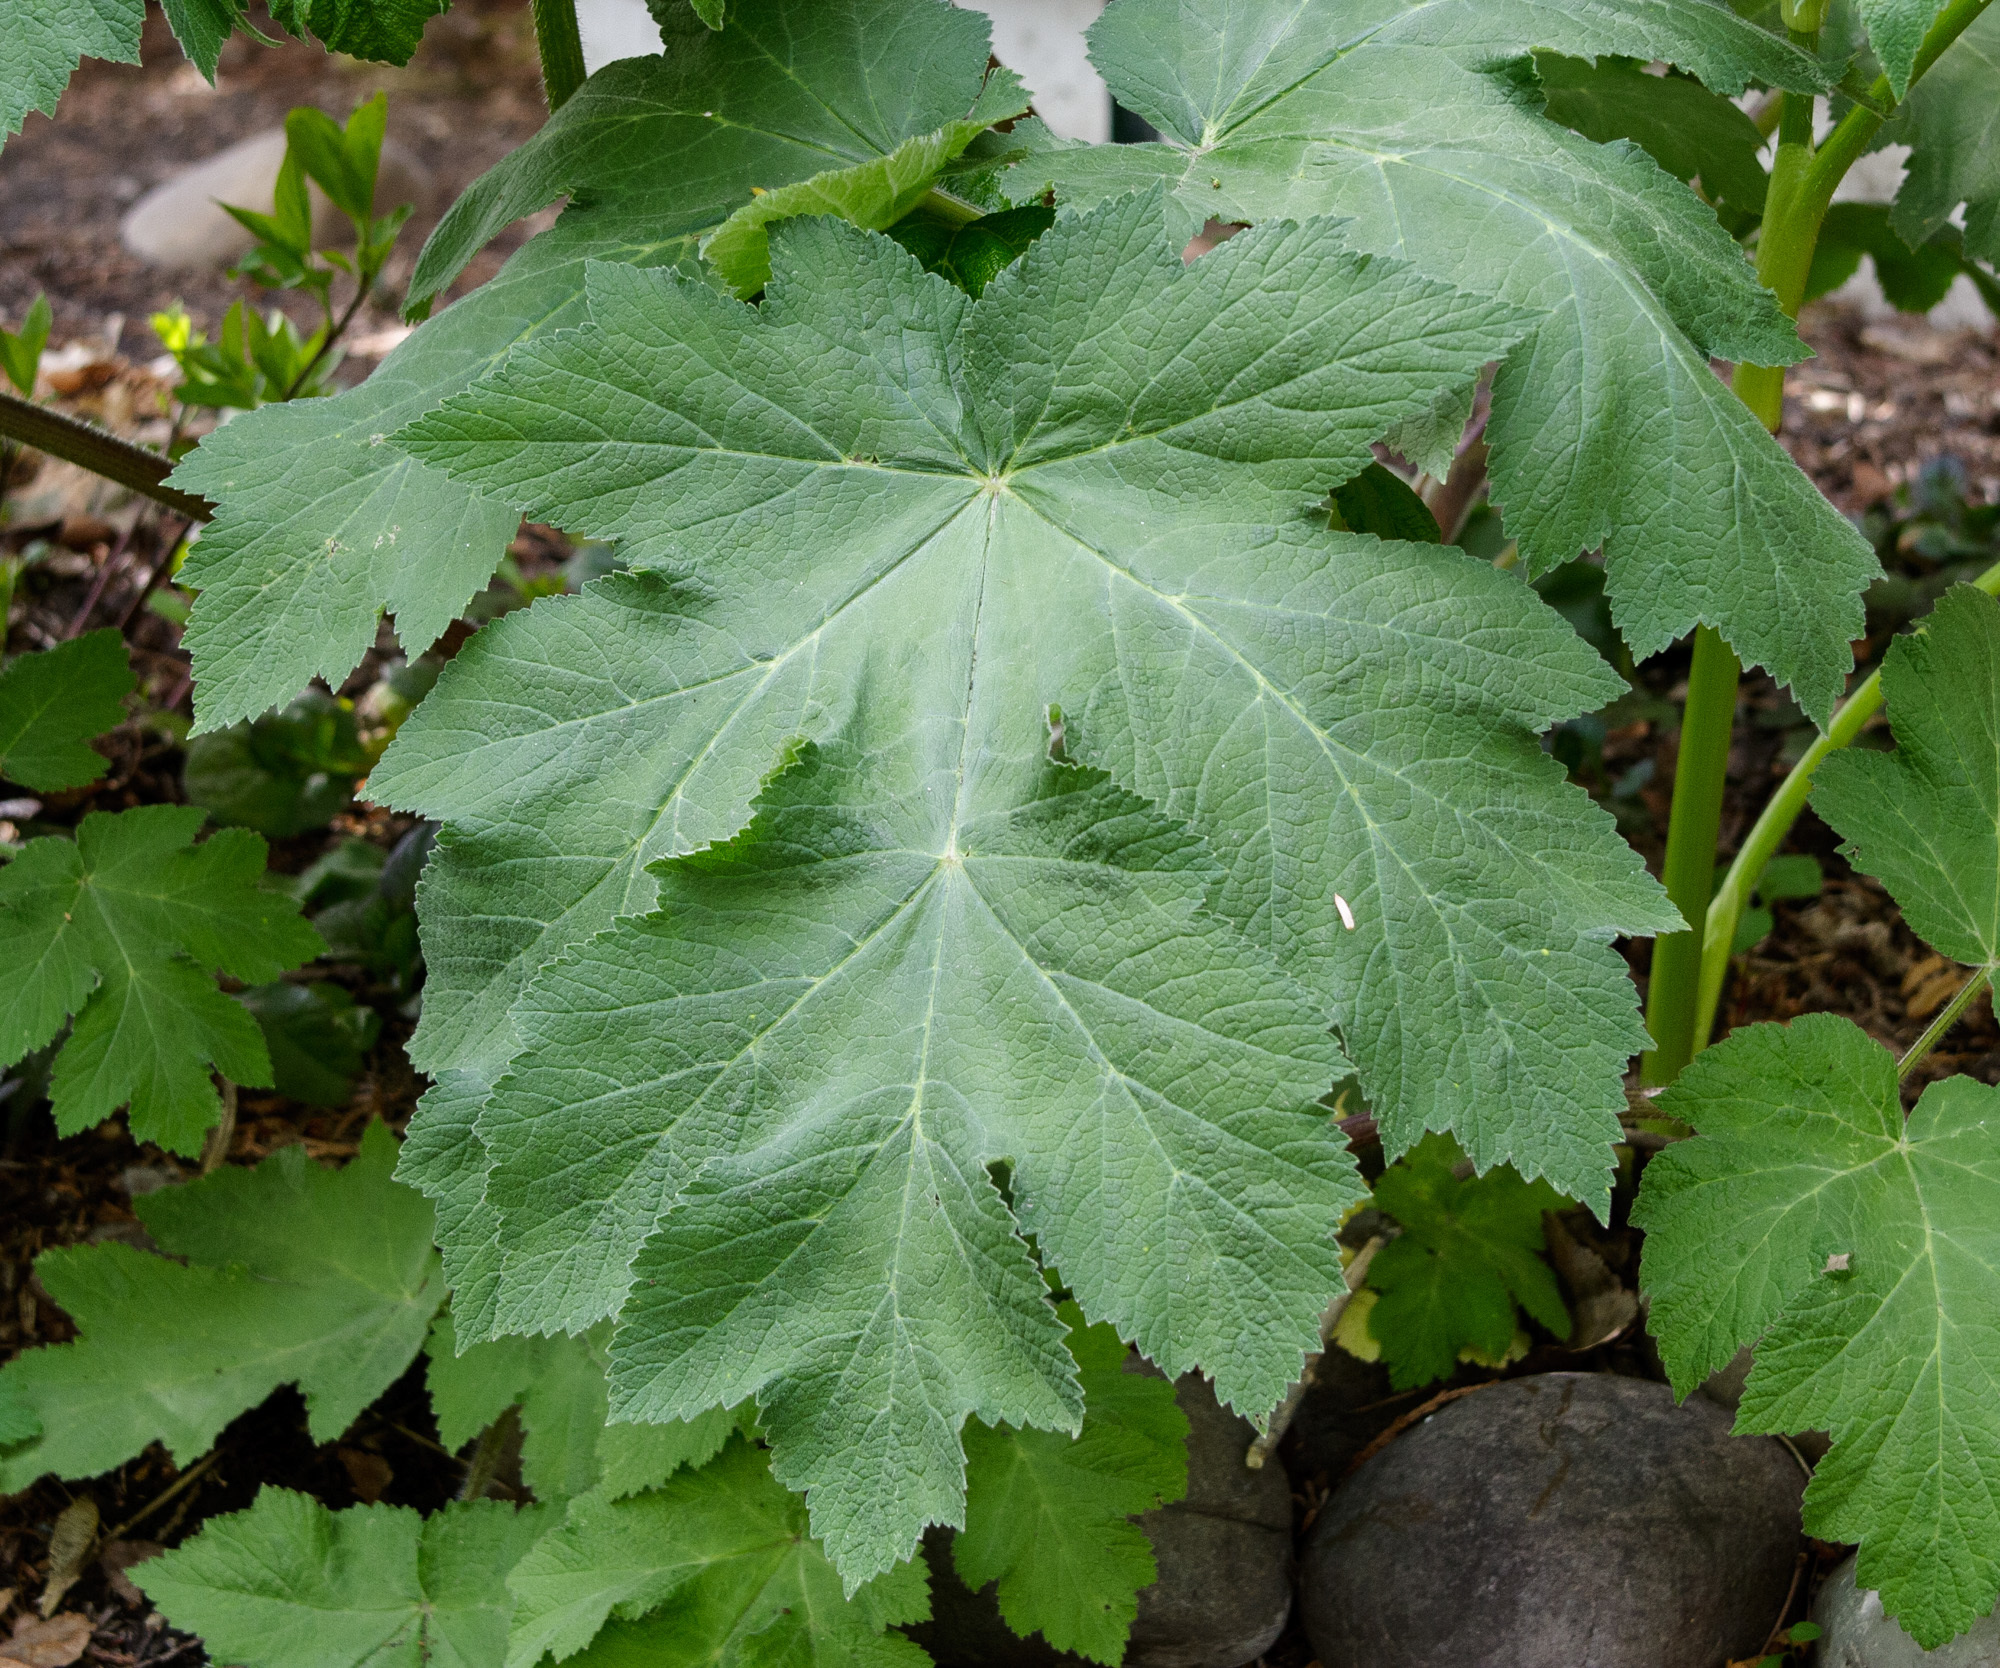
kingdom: Plantae
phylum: Tracheophyta
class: Magnoliopsida
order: Apiales
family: Apiaceae
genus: Heracleum
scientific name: Heracleum maximum
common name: American cow parsnip
